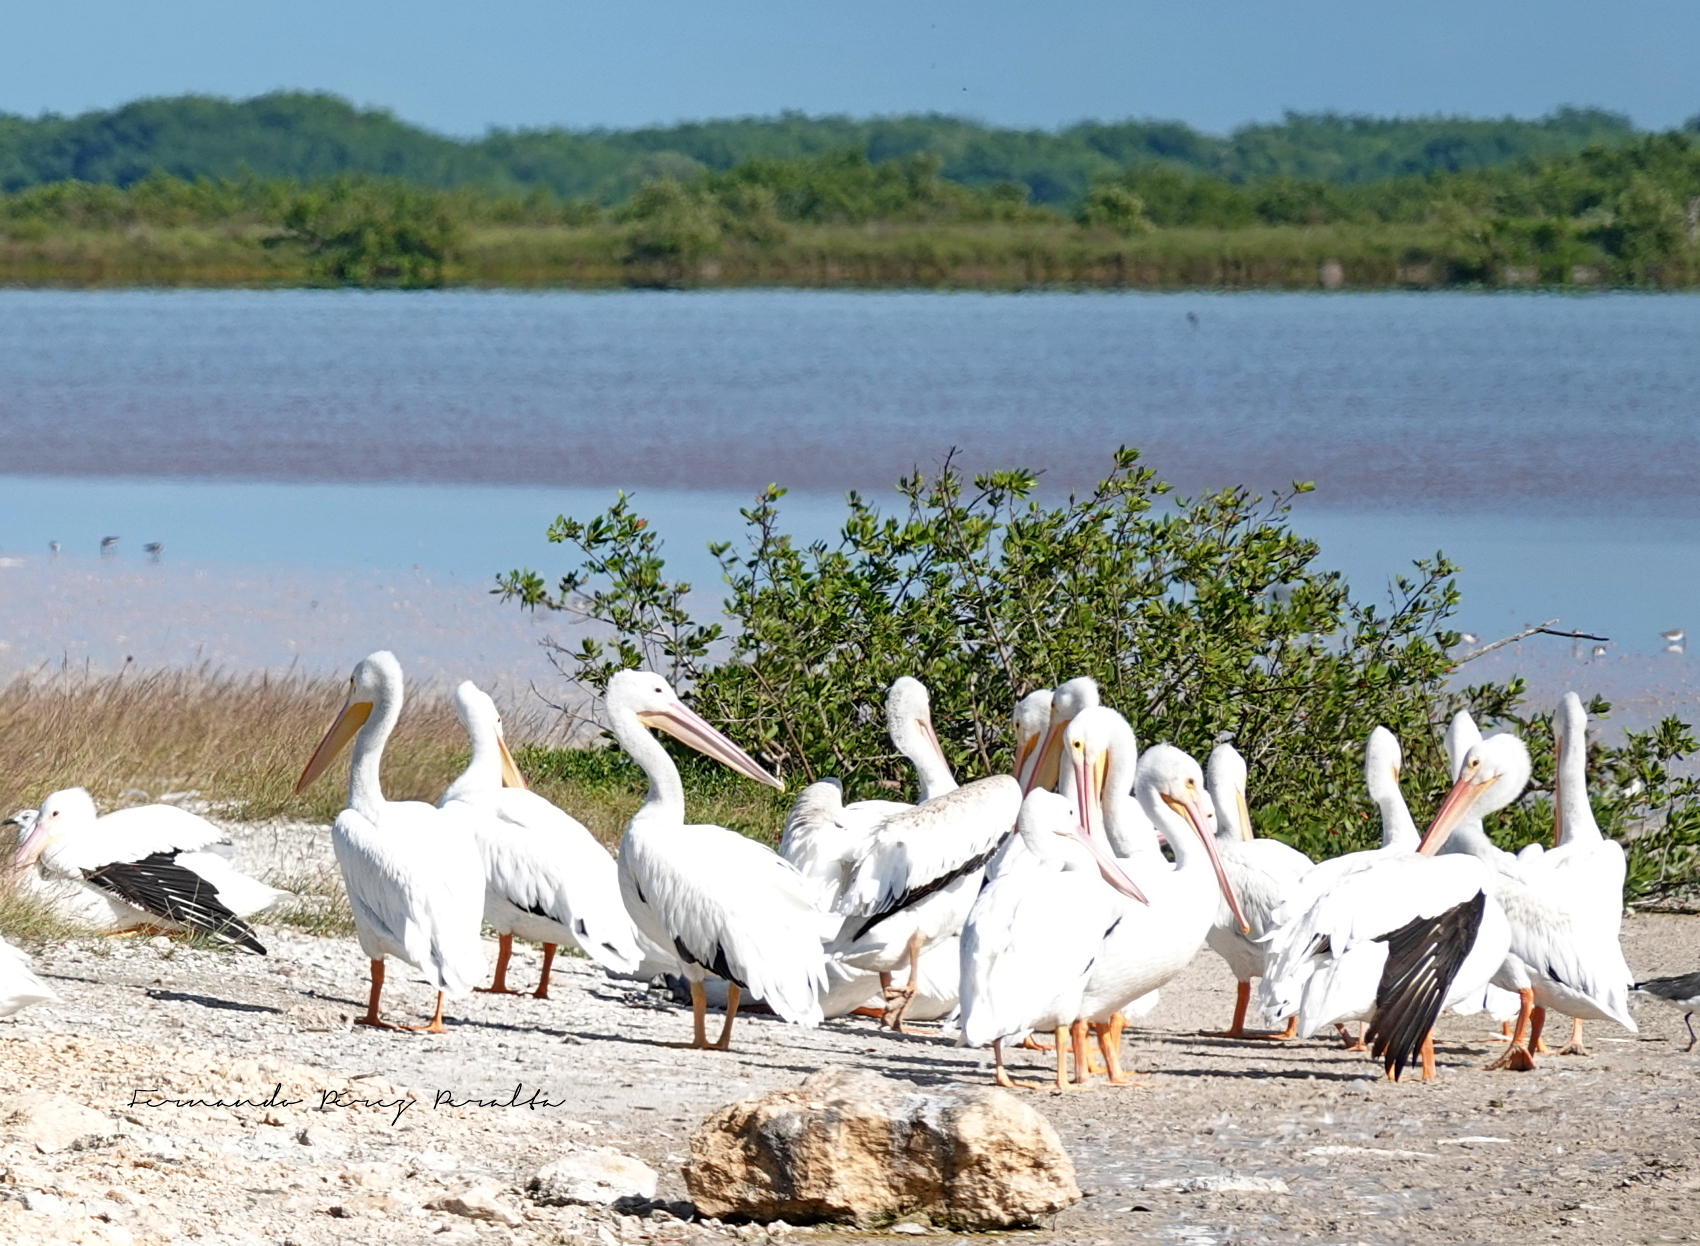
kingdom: Animalia
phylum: Chordata
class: Aves
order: Pelecaniformes
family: Pelecanidae
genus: Pelecanus
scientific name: Pelecanus erythrorhynchos
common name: American white pelican
